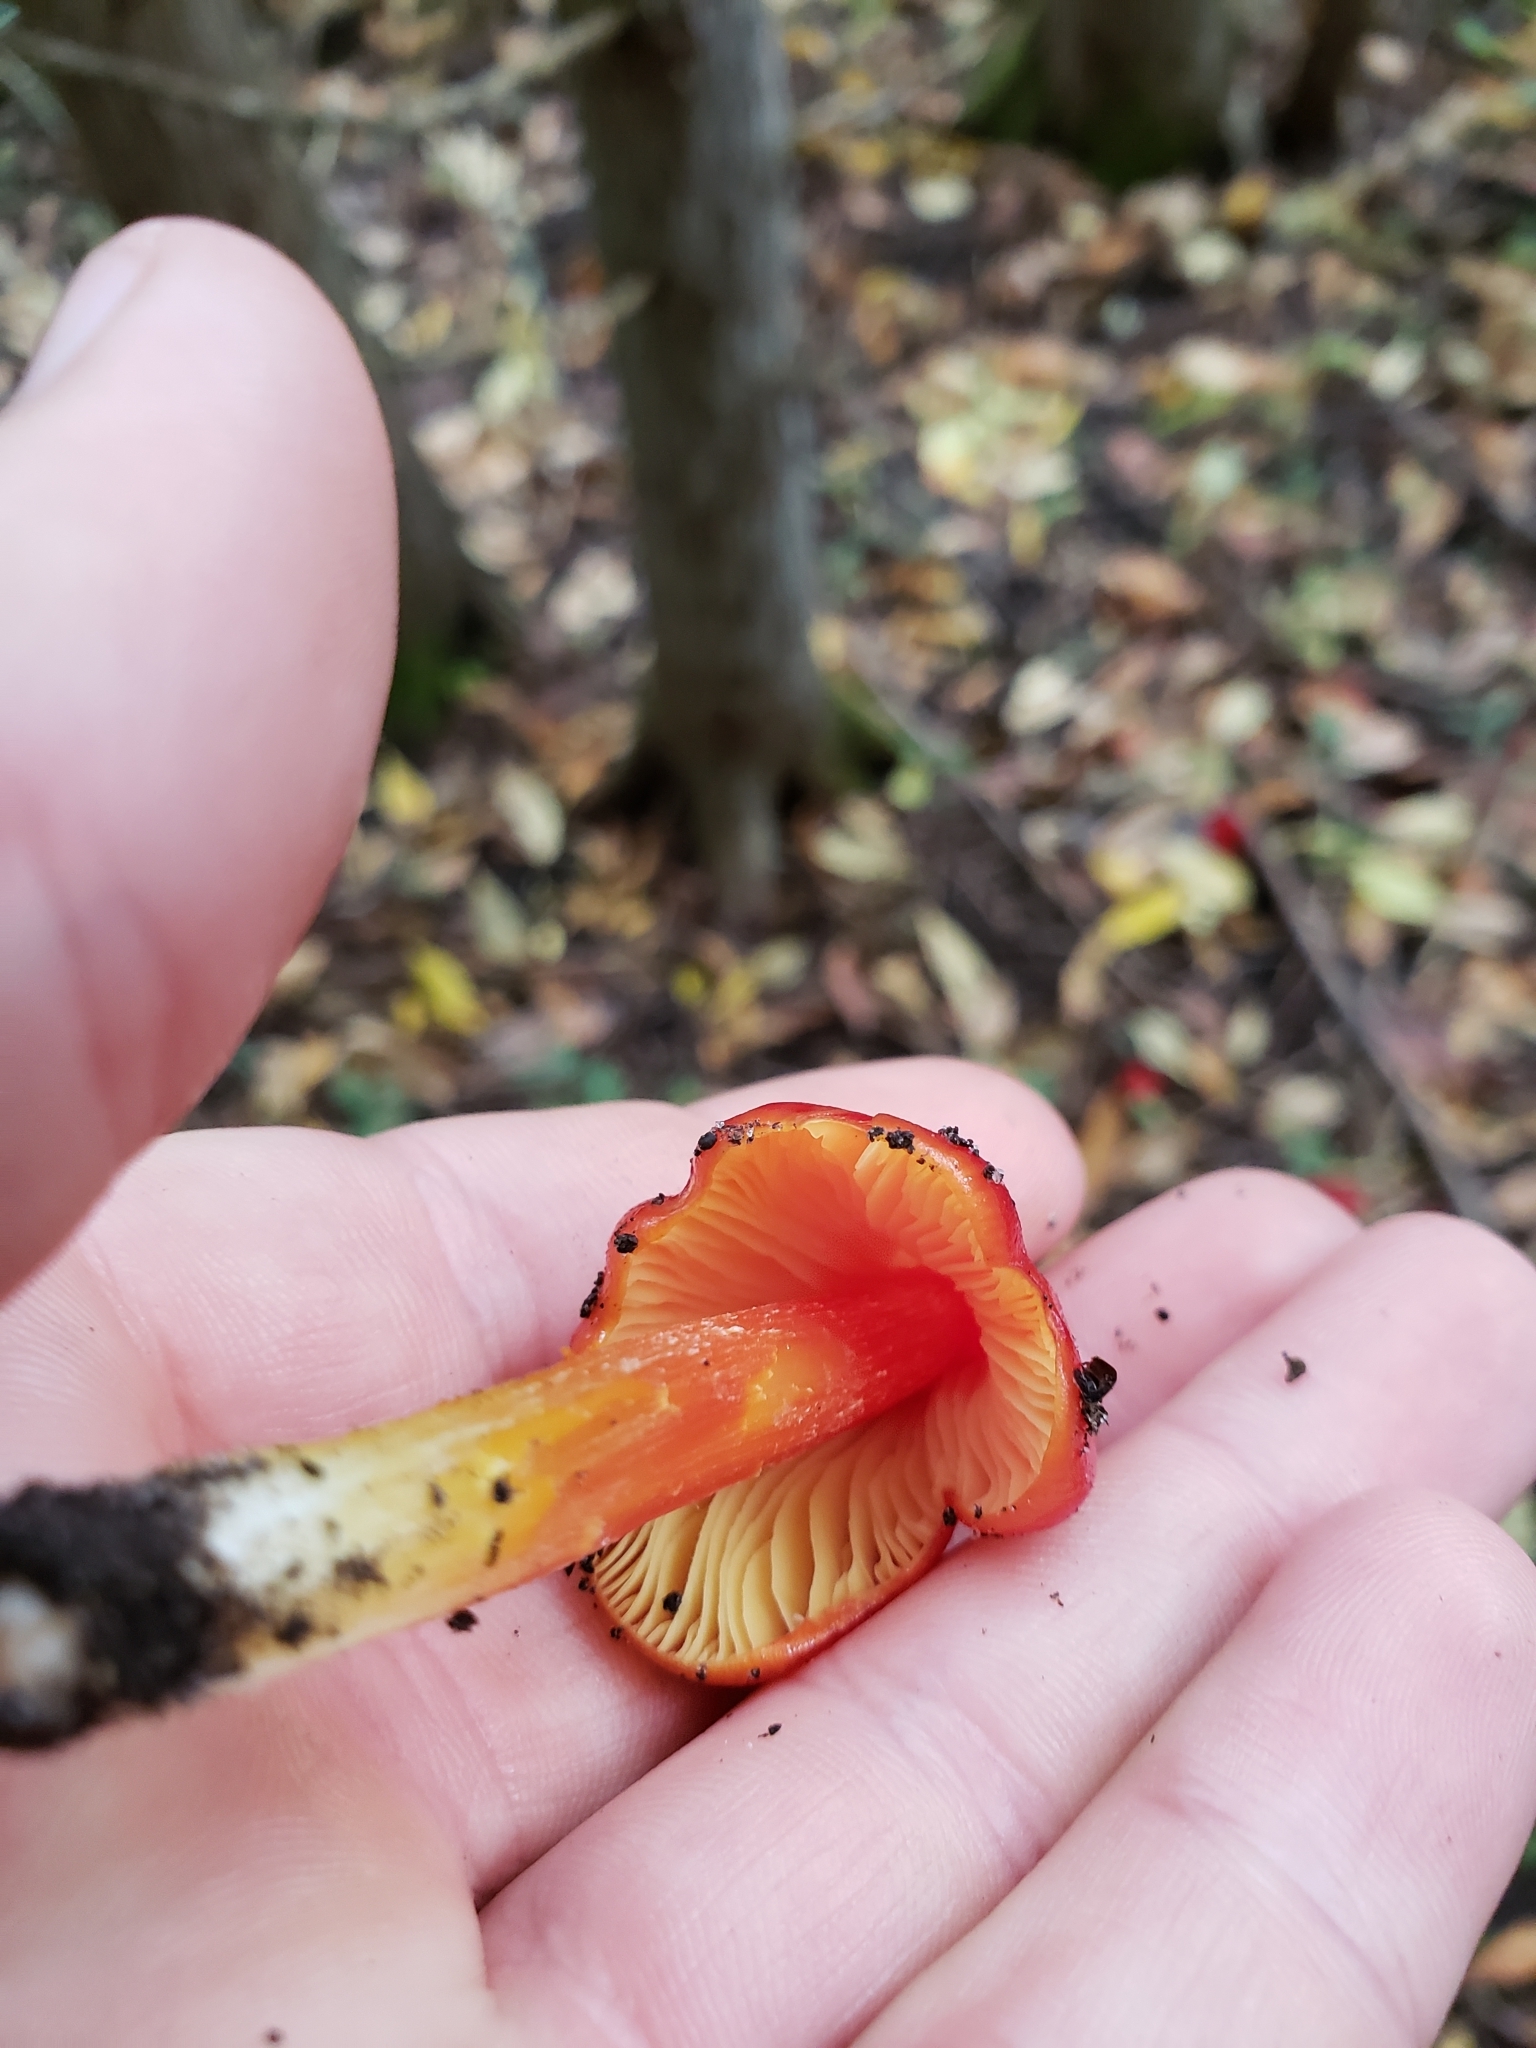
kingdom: Fungi
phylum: Basidiomycota
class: Agaricomycetes
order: Agaricales
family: Hygrophoraceae
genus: Hygrocybe
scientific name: Hygrocybe cuspidata
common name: Candy apple waxy cap
